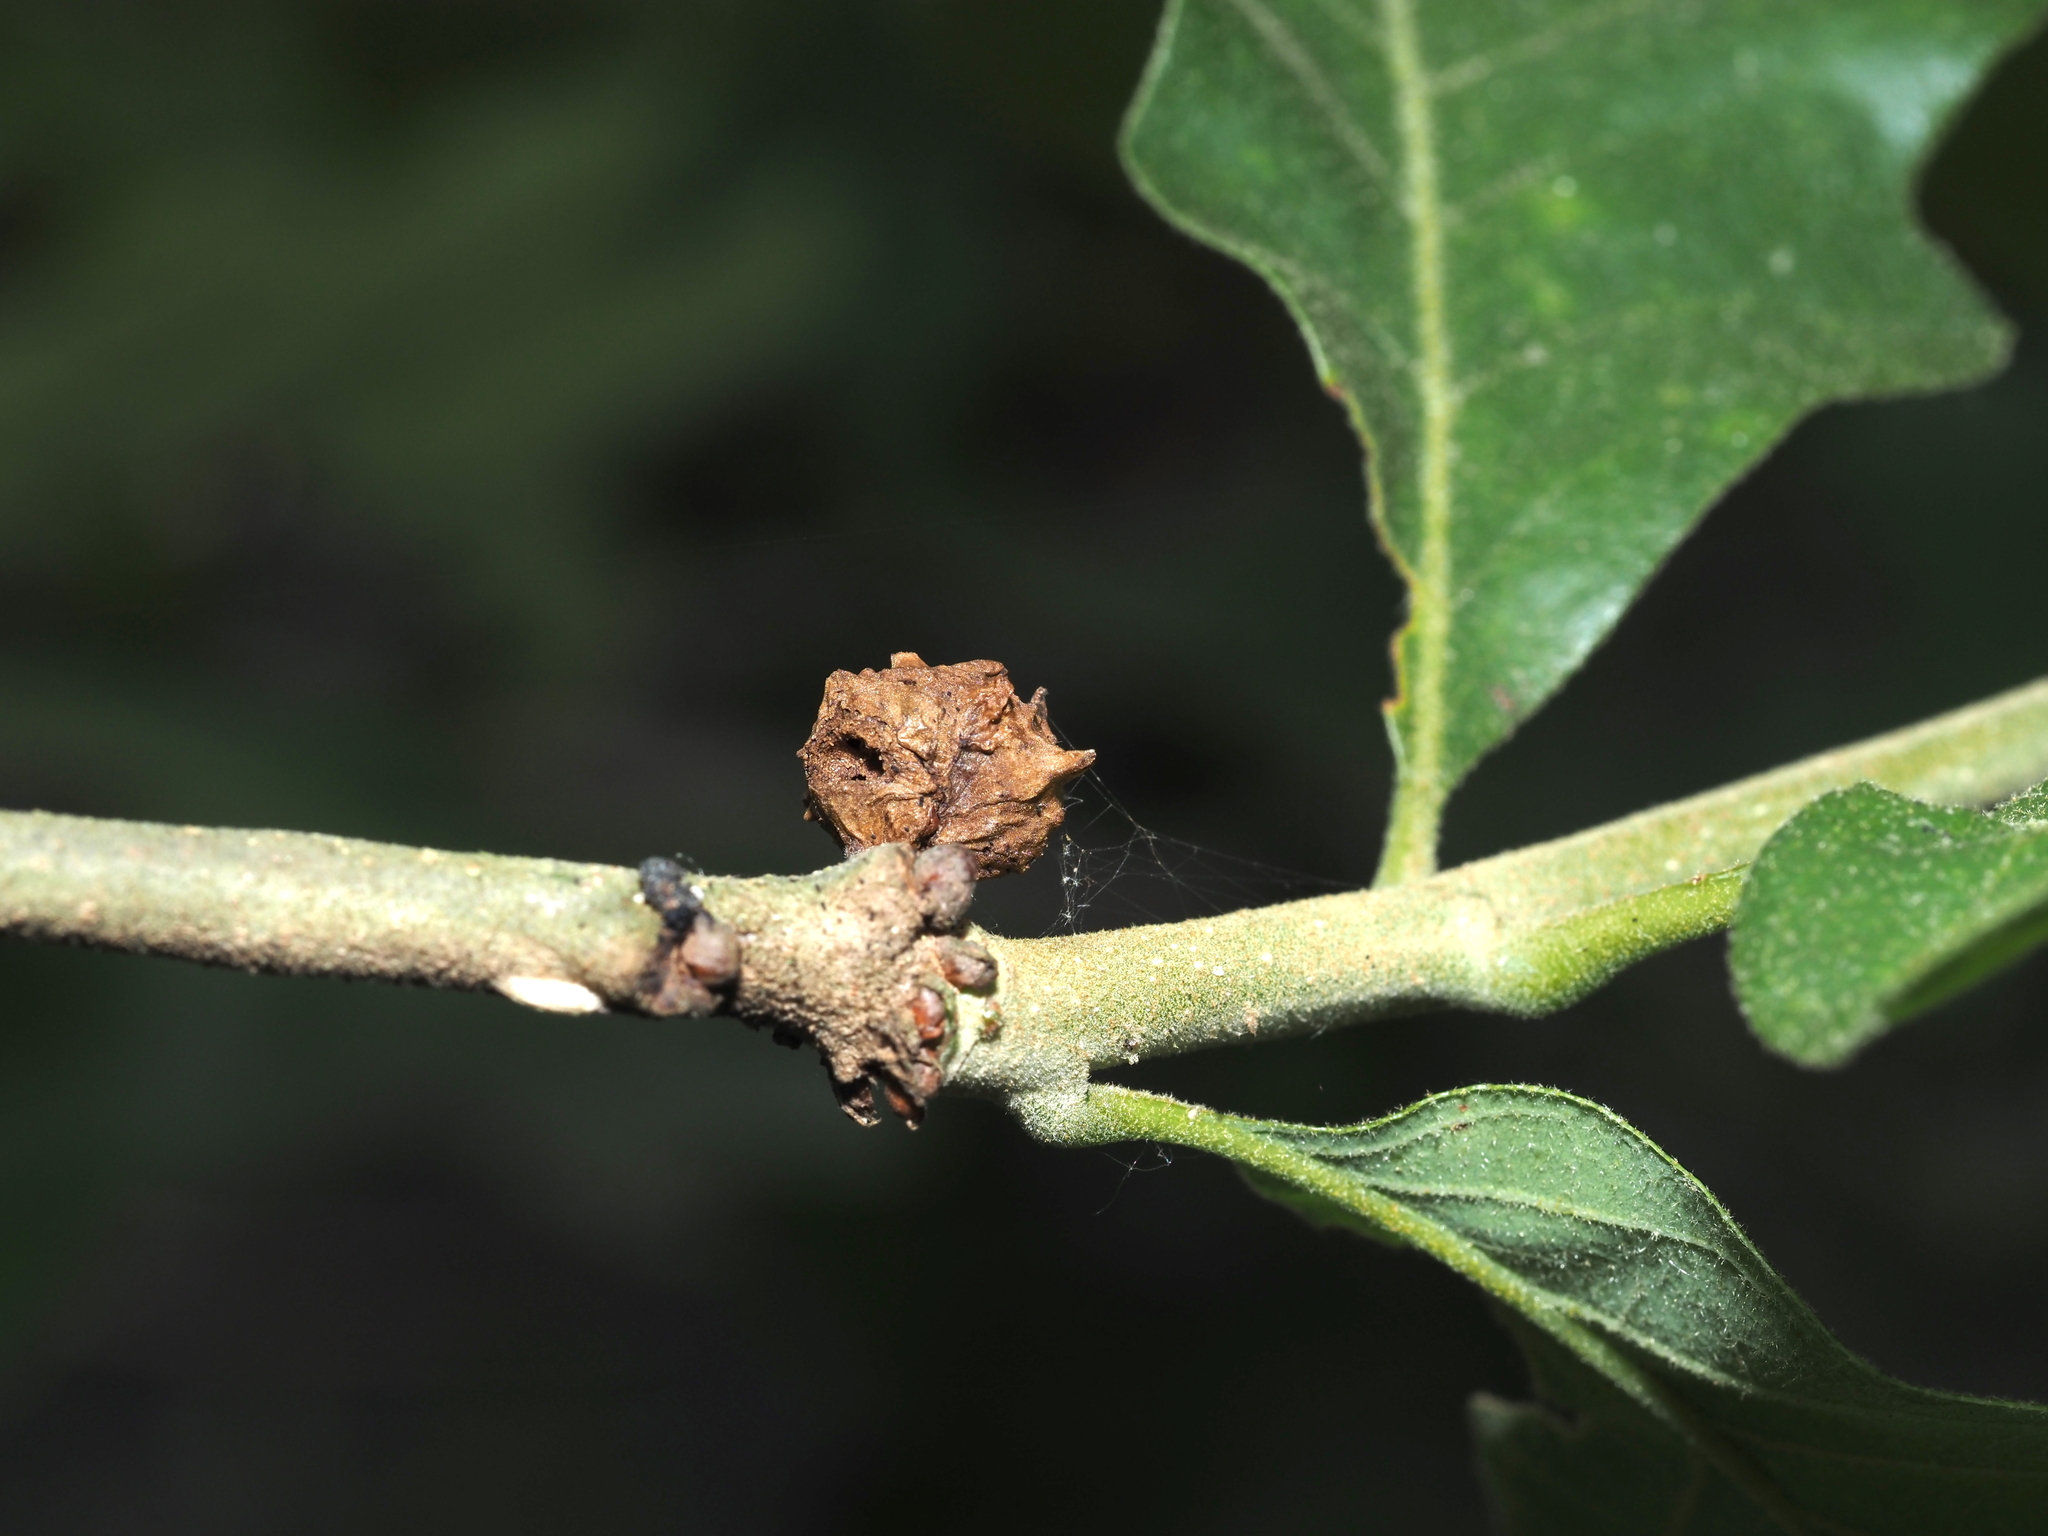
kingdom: Animalia
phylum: Arthropoda
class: Insecta
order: Hymenoptera
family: Cynipidae
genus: Andricus
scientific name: Andricus
